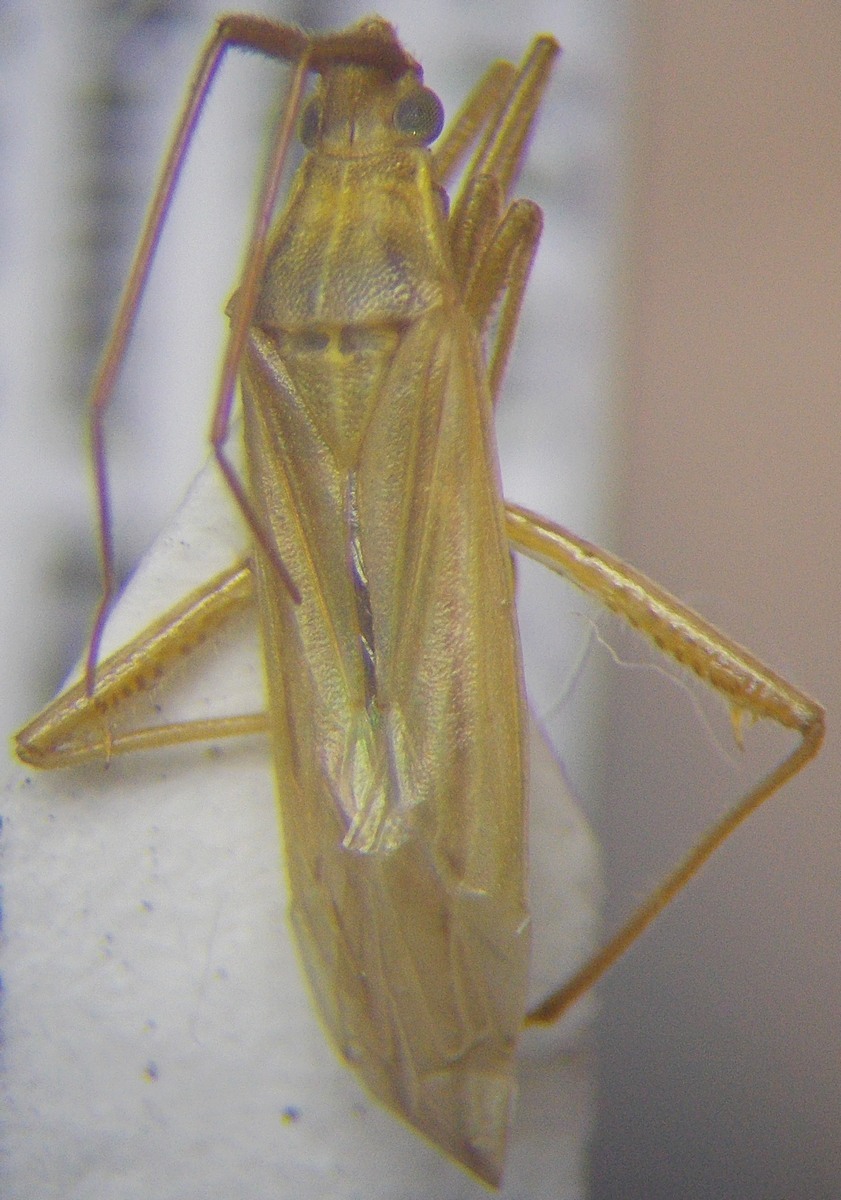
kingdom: Animalia
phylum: Arthropoda
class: Insecta
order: Hemiptera
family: Miridae
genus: Stenodema
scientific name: Stenodema calcarata
